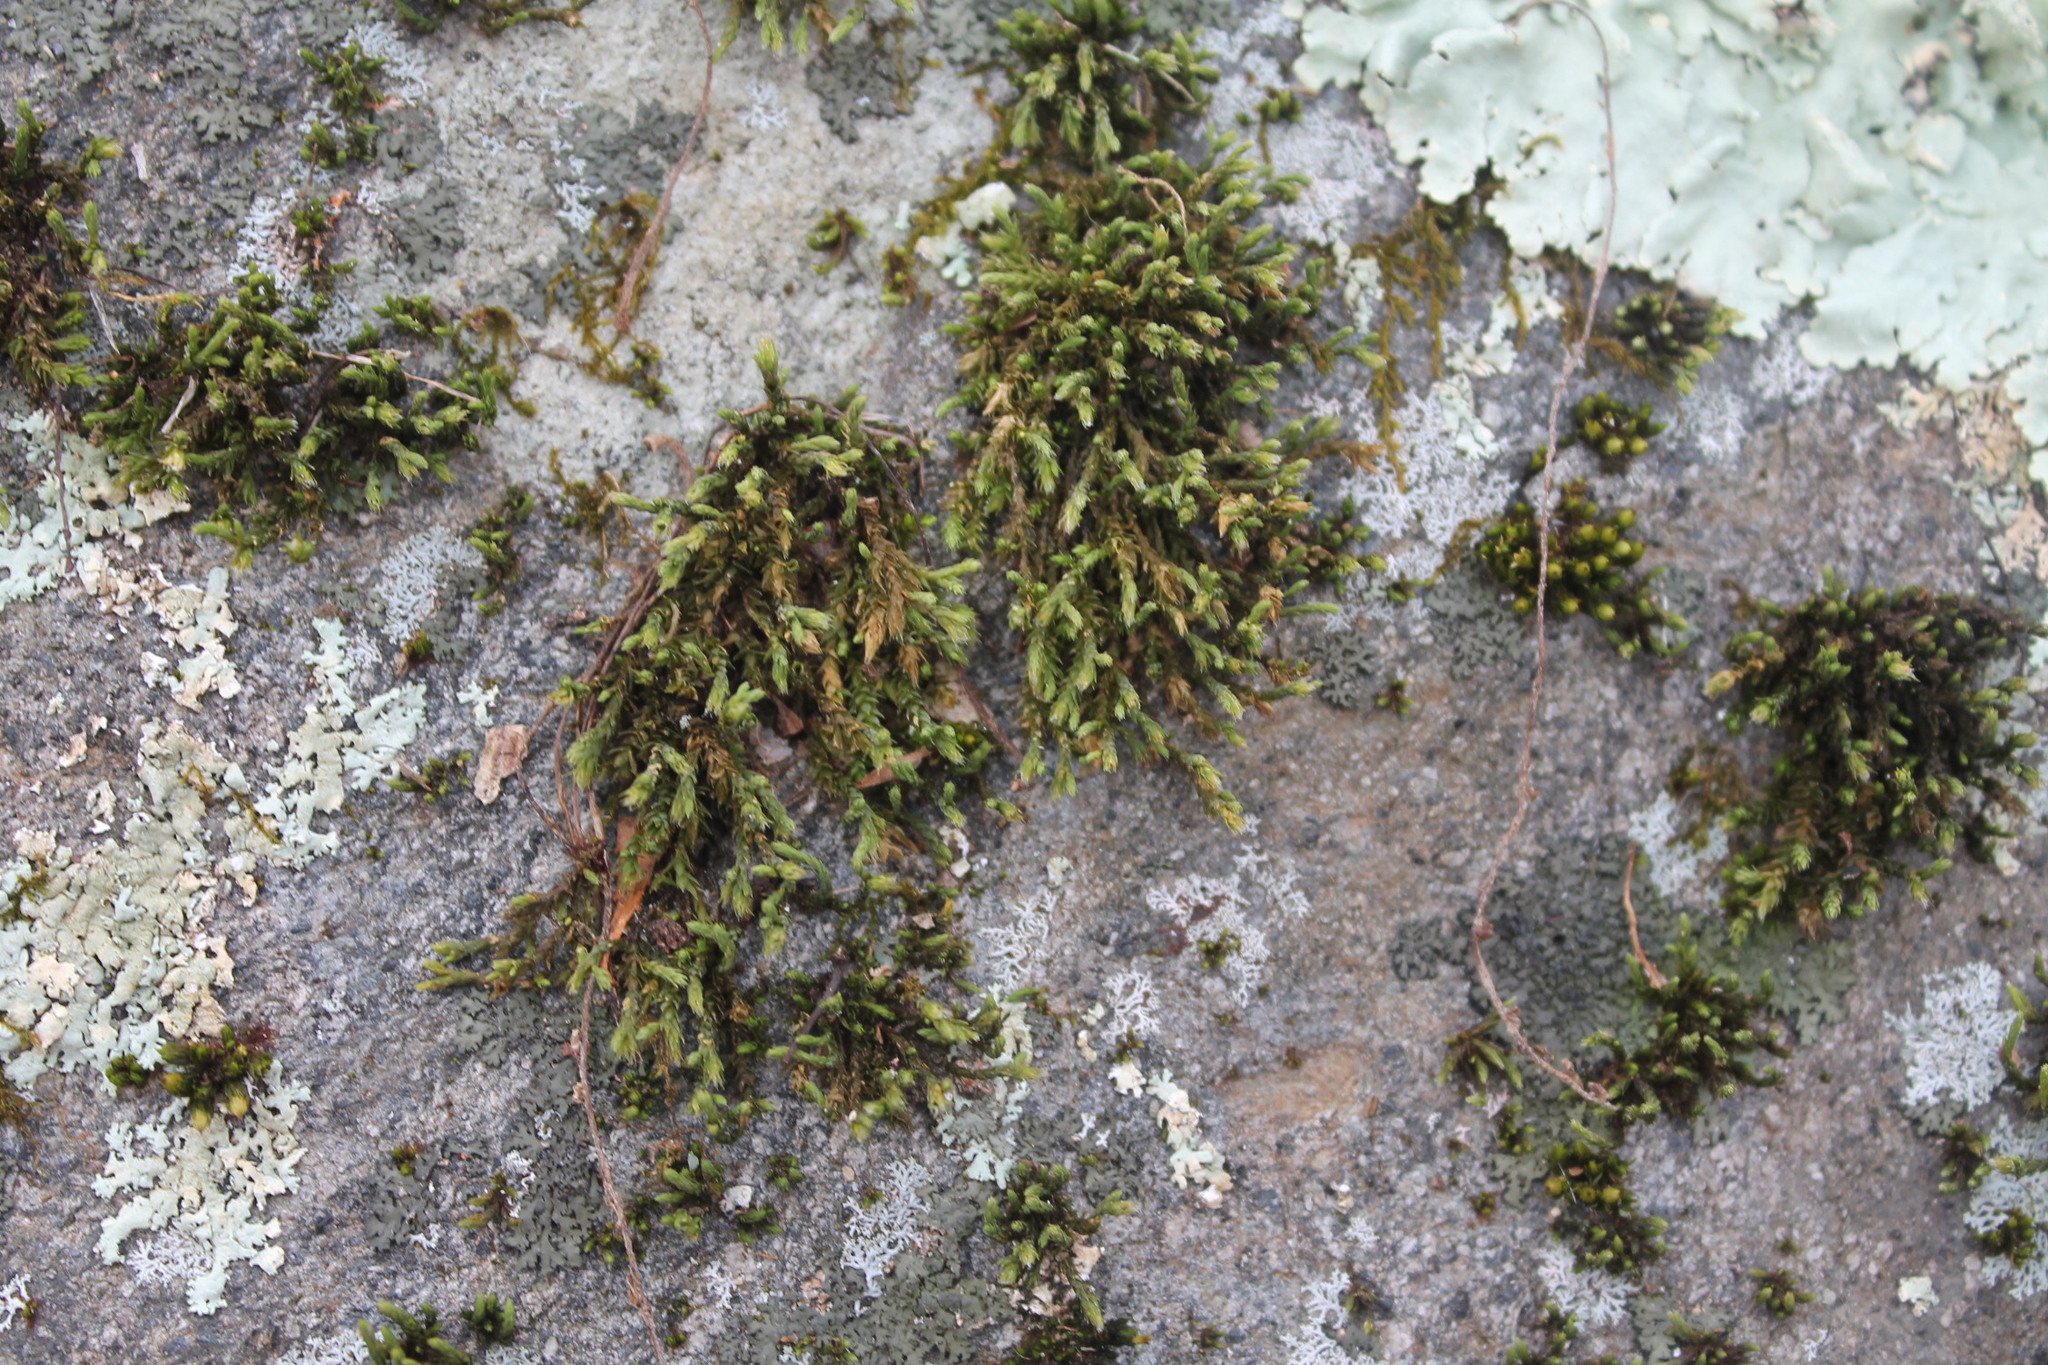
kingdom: Plantae
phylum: Bryophyta
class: Bryopsida
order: Hedwigiales
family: Hedwigiaceae
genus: Hedwigia
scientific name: Hedwigia ciliata
